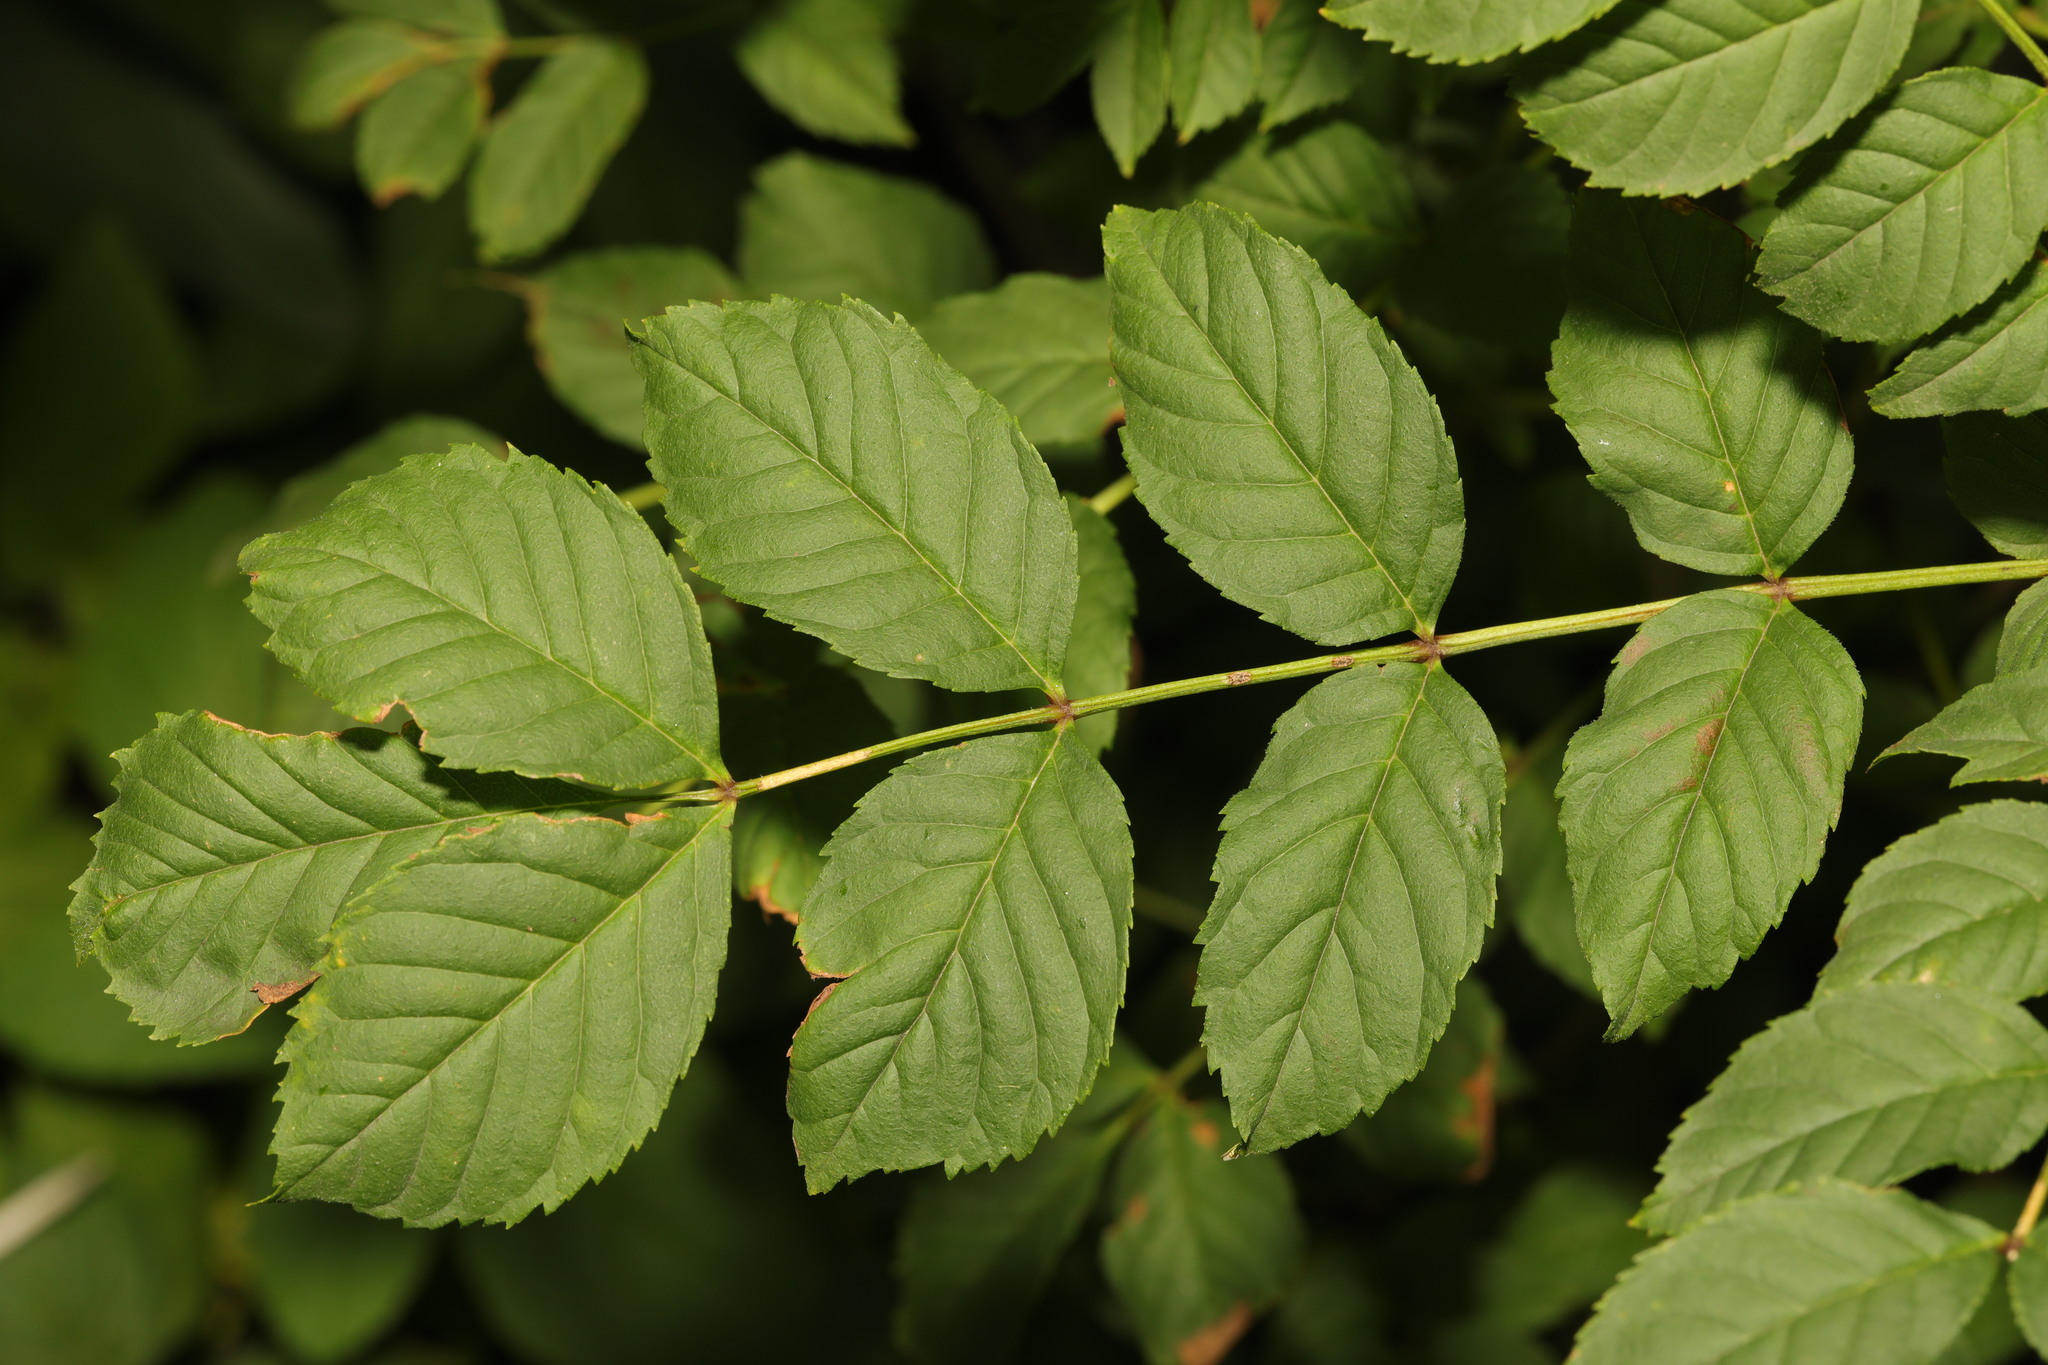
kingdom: Plantae
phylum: Tracheophyta
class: Magnoliopsida
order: Lamiales
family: Oleaceae
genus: Fraxinus
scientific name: Fraxinus excelsior
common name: European ash
